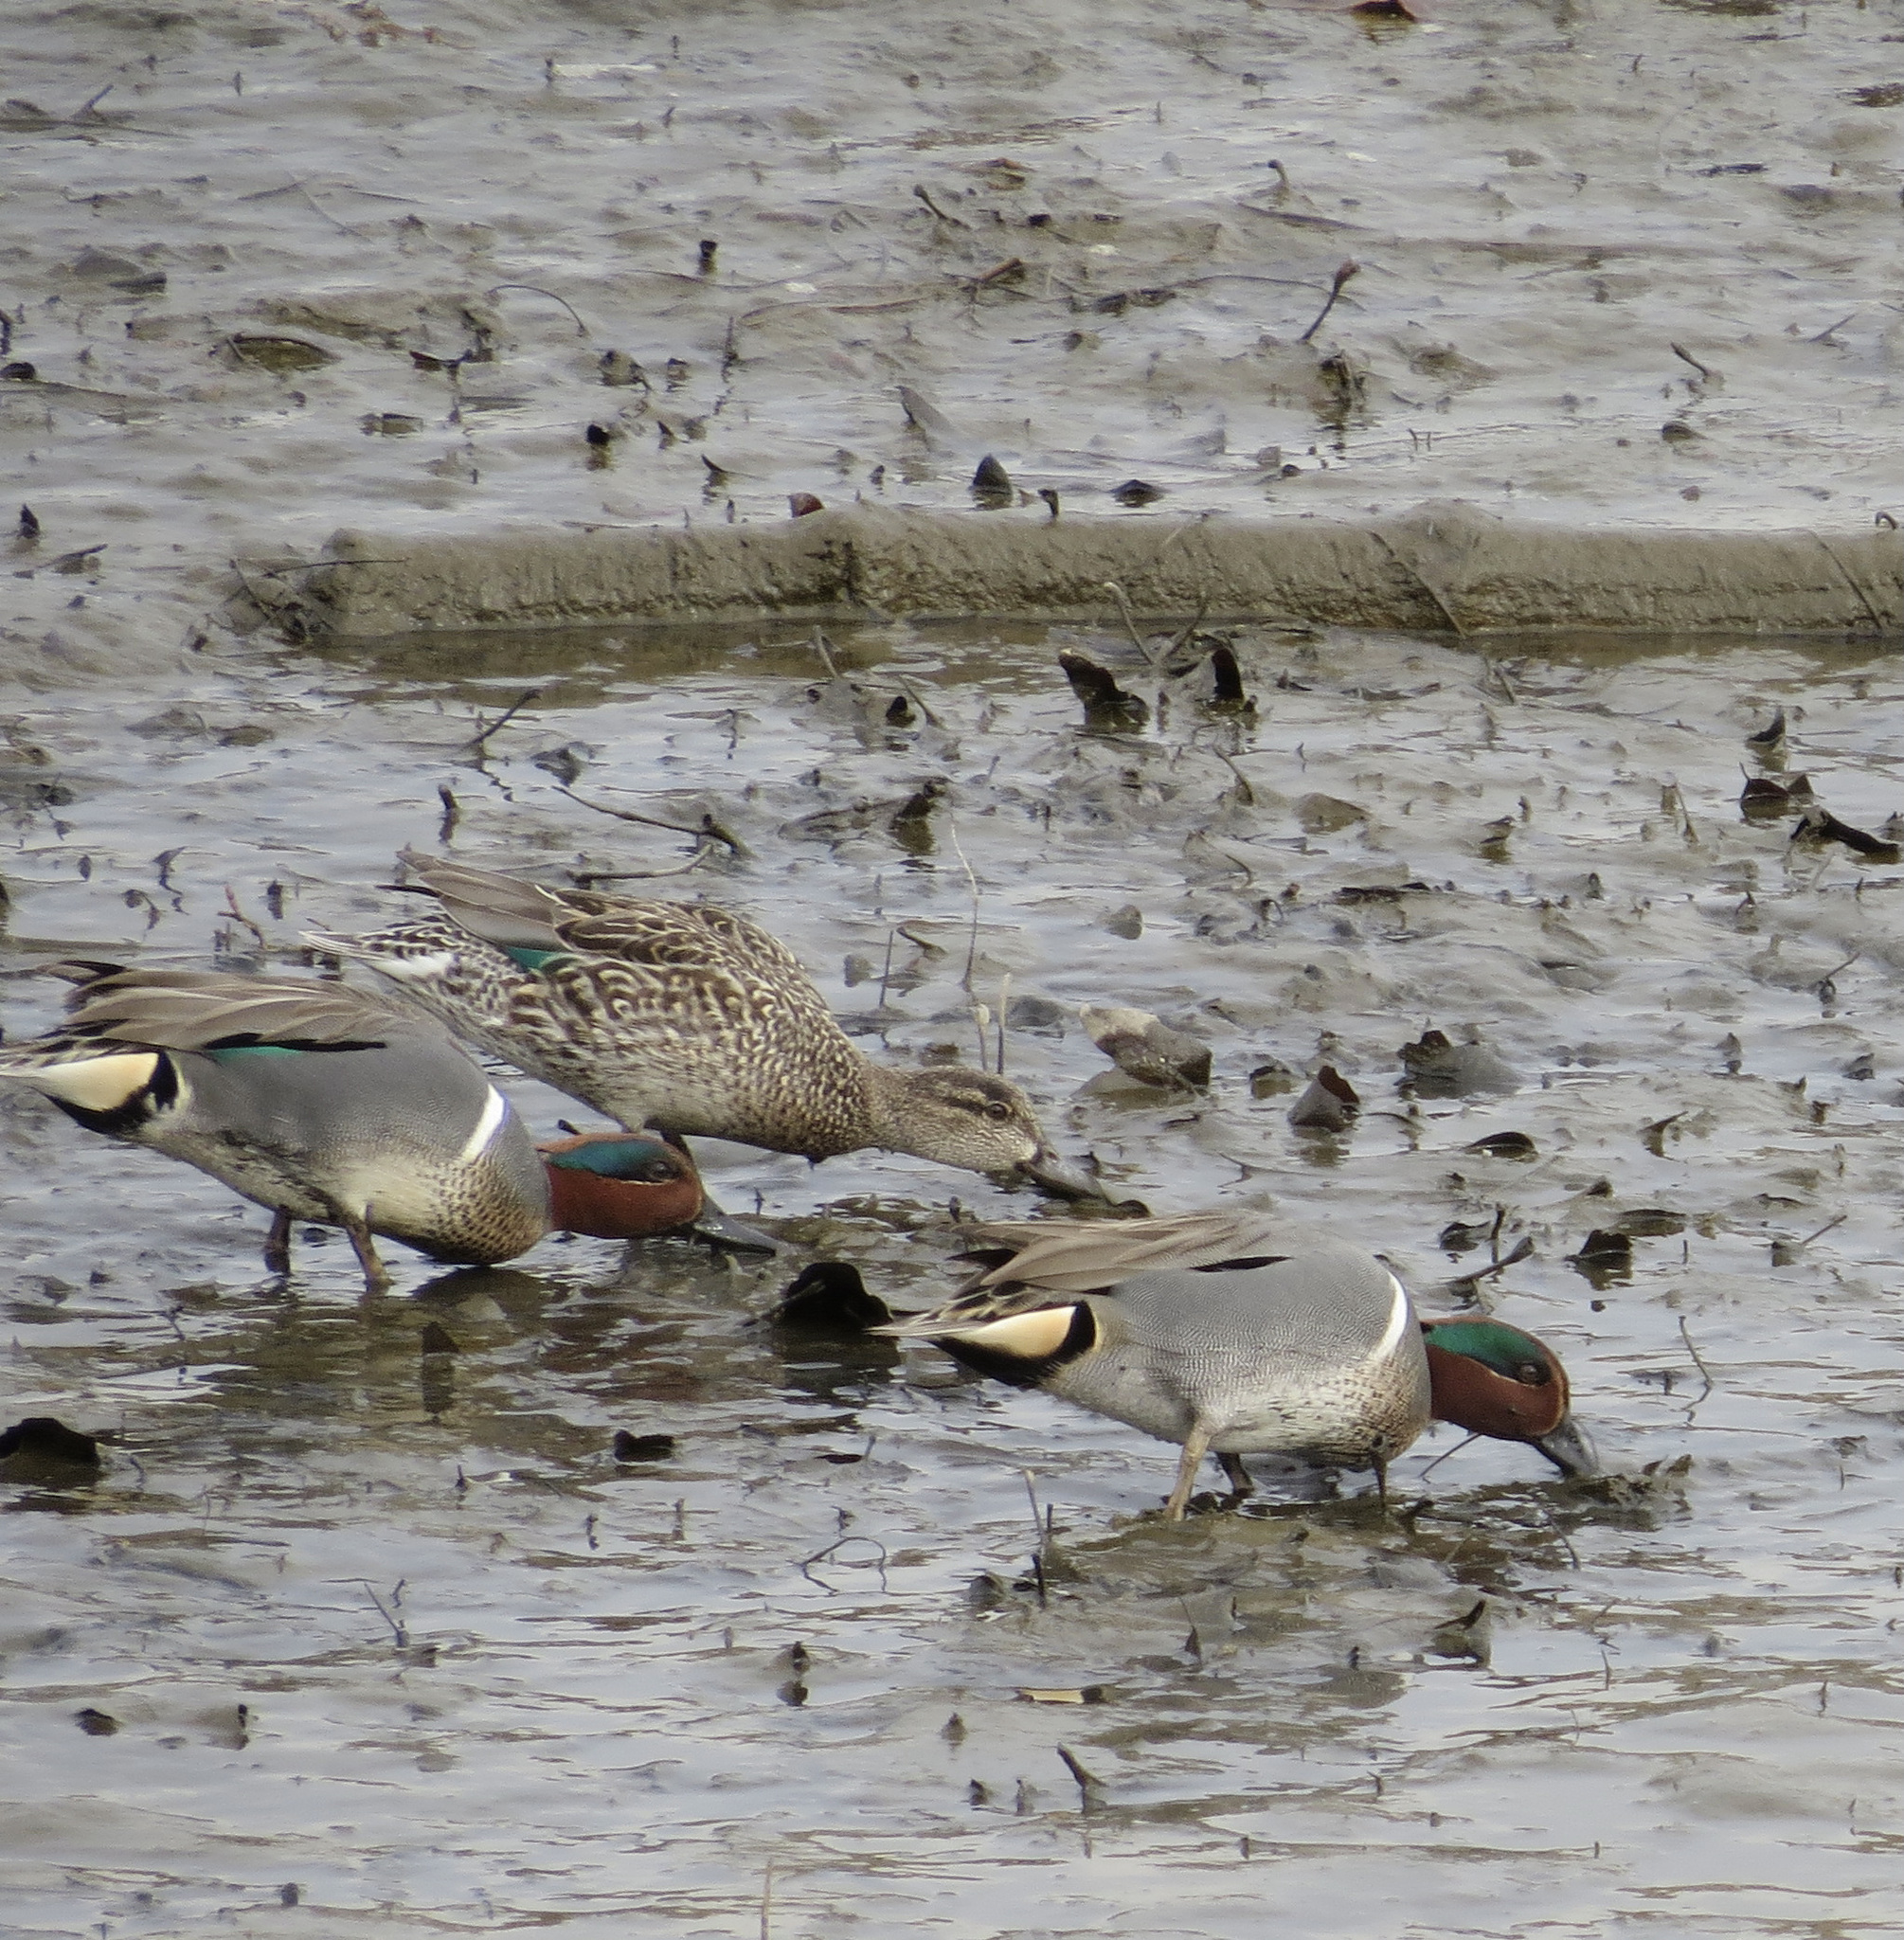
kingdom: Animalia
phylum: Chordata
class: Aves
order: Anseriformes
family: Anatidae
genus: Anas
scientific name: Anas crecca
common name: Eurasian teal
